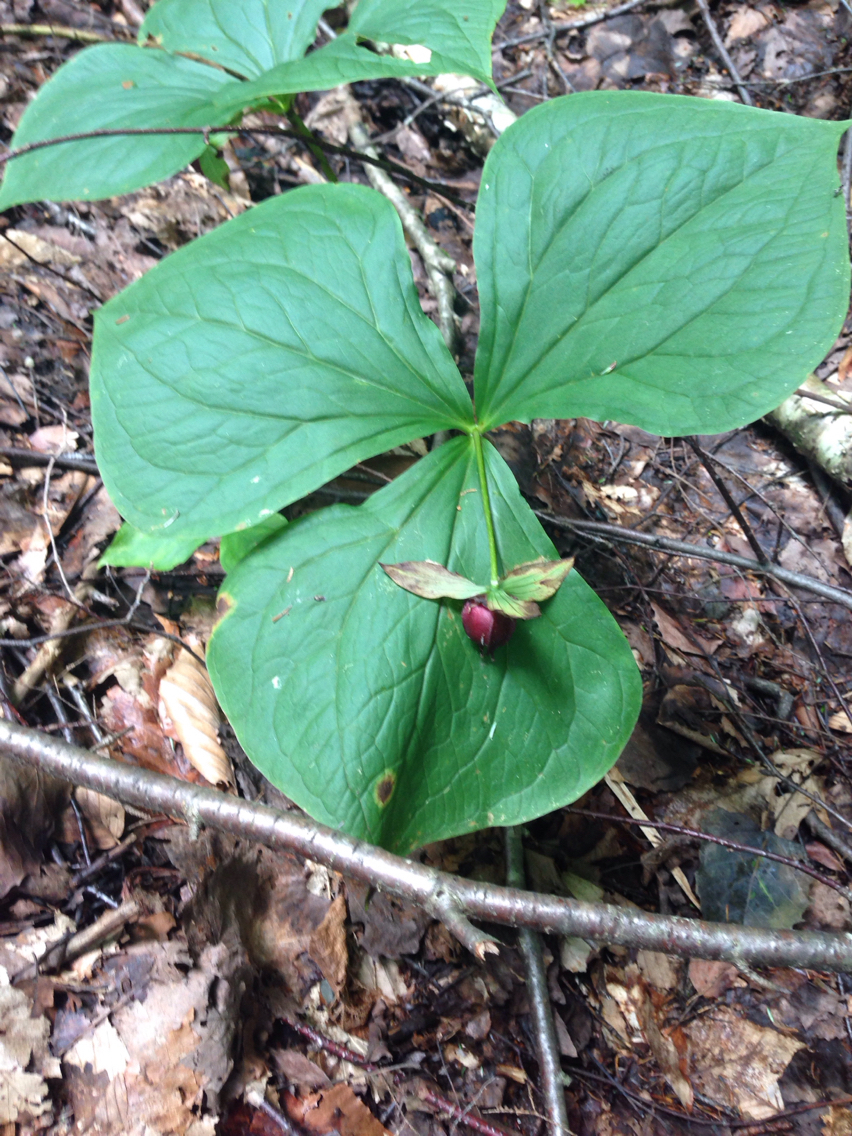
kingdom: Plantae
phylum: Tracheophyta
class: Liliopsida
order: Liliales
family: Melanthiaceae
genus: Trillium
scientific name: Trillium erectum
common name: Purple trillium
